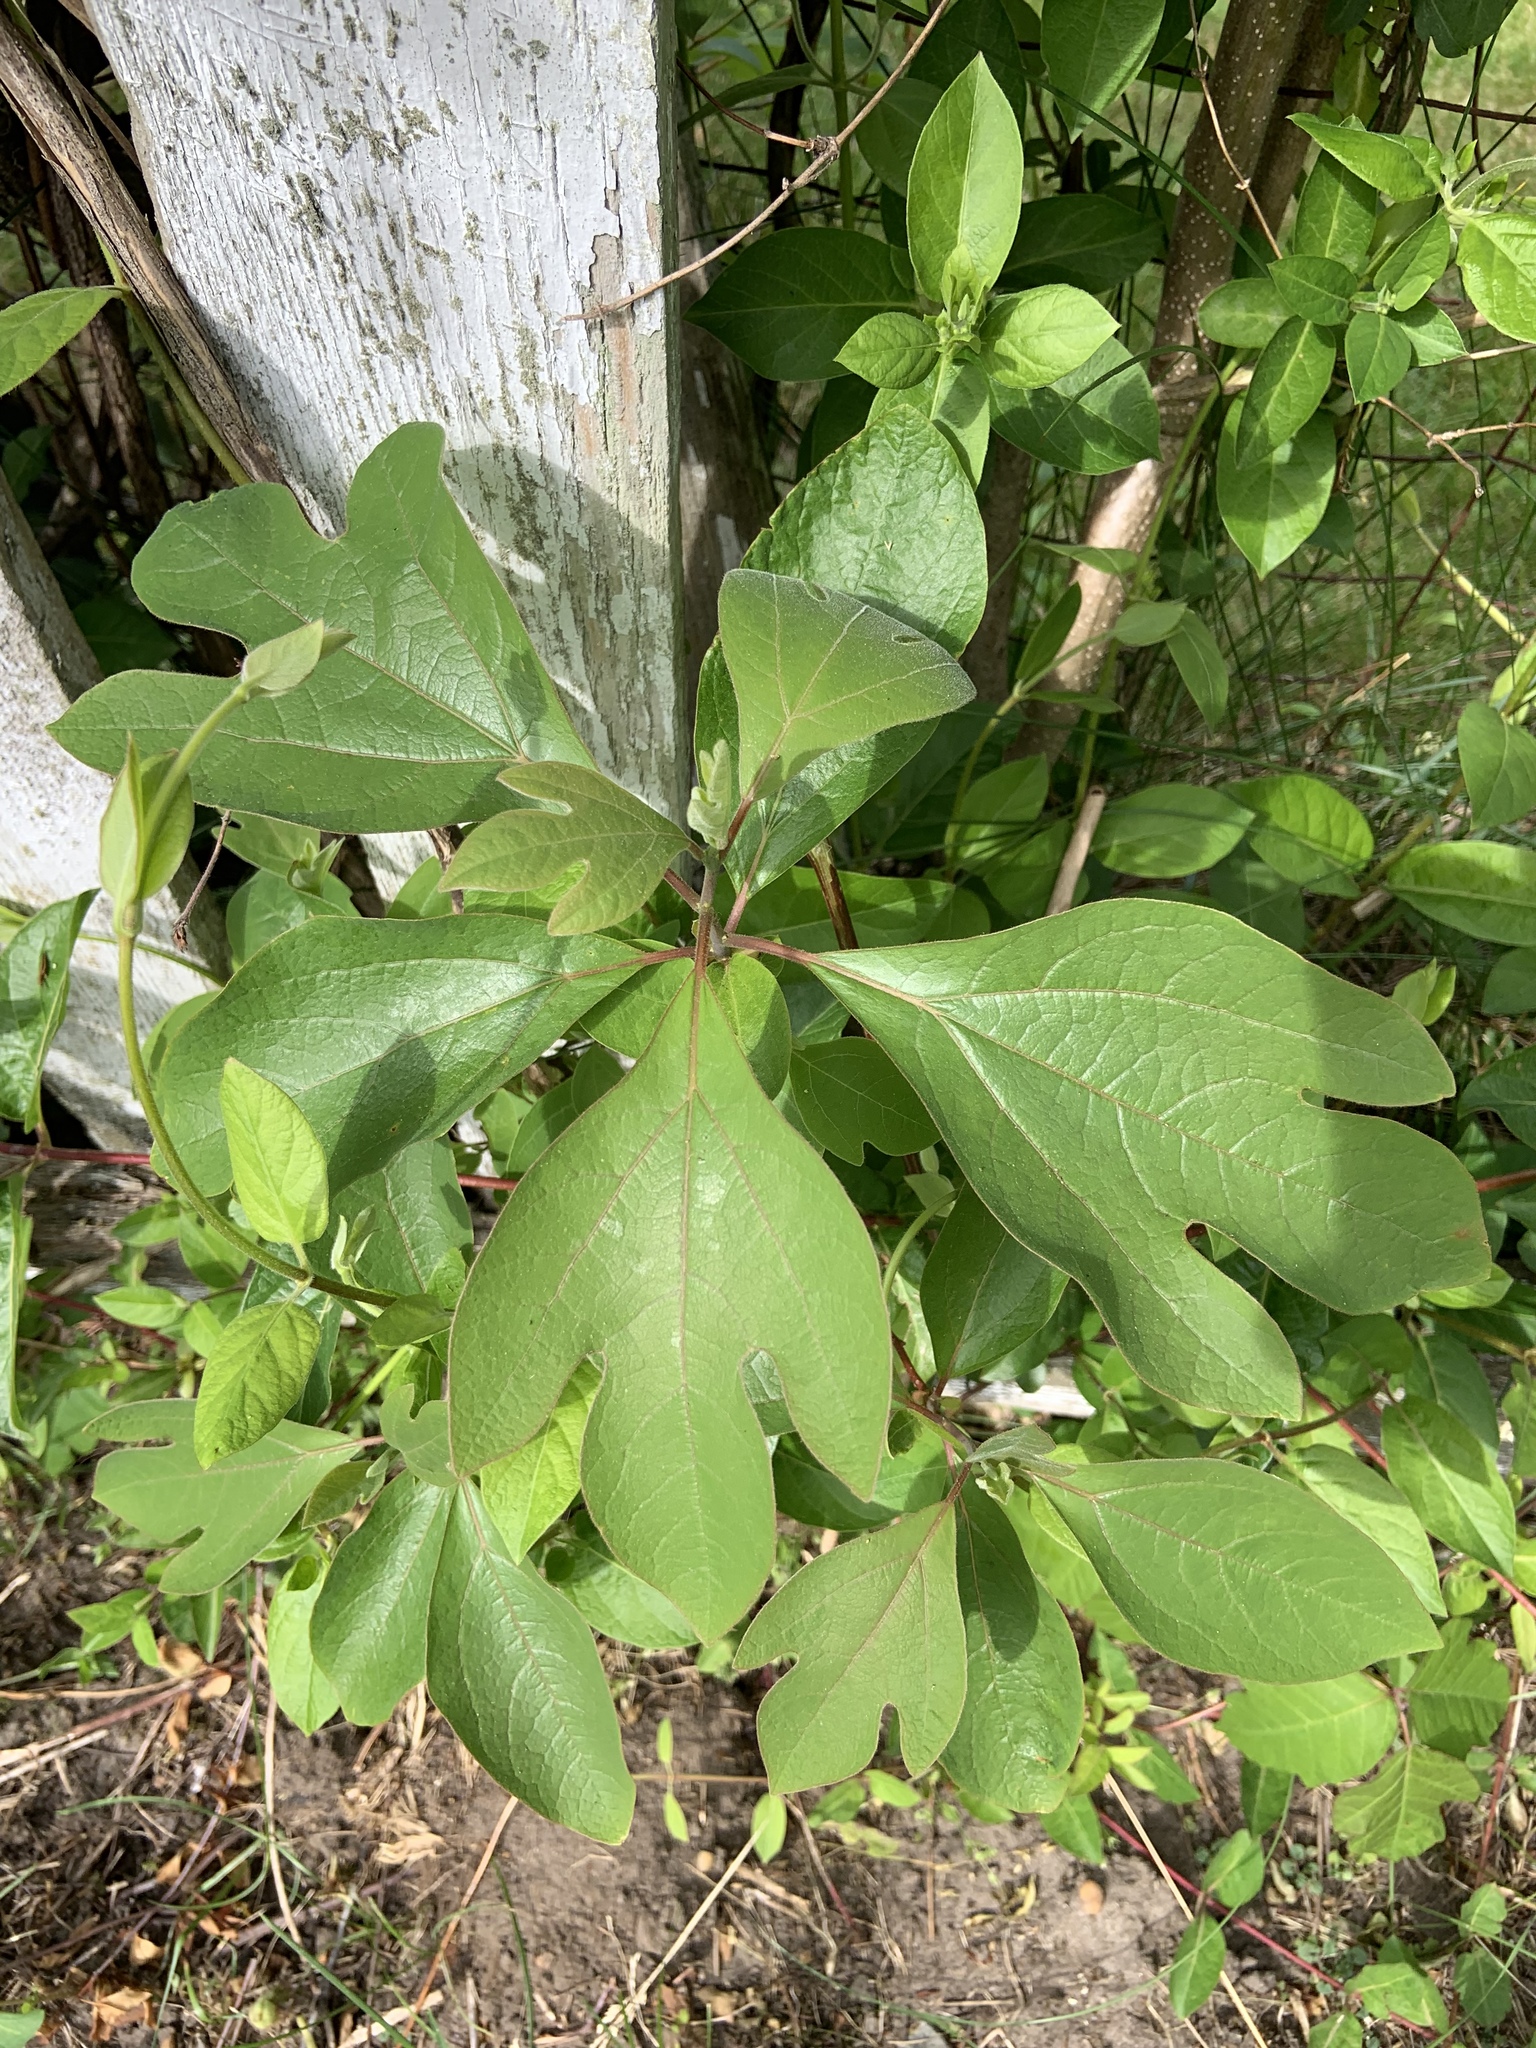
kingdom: Plantae
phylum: Tracheophyta
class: Magnoliopsida
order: Laurales
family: Lauraceae
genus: Sassafras
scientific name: Sassafras albidum
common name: Sassafras
